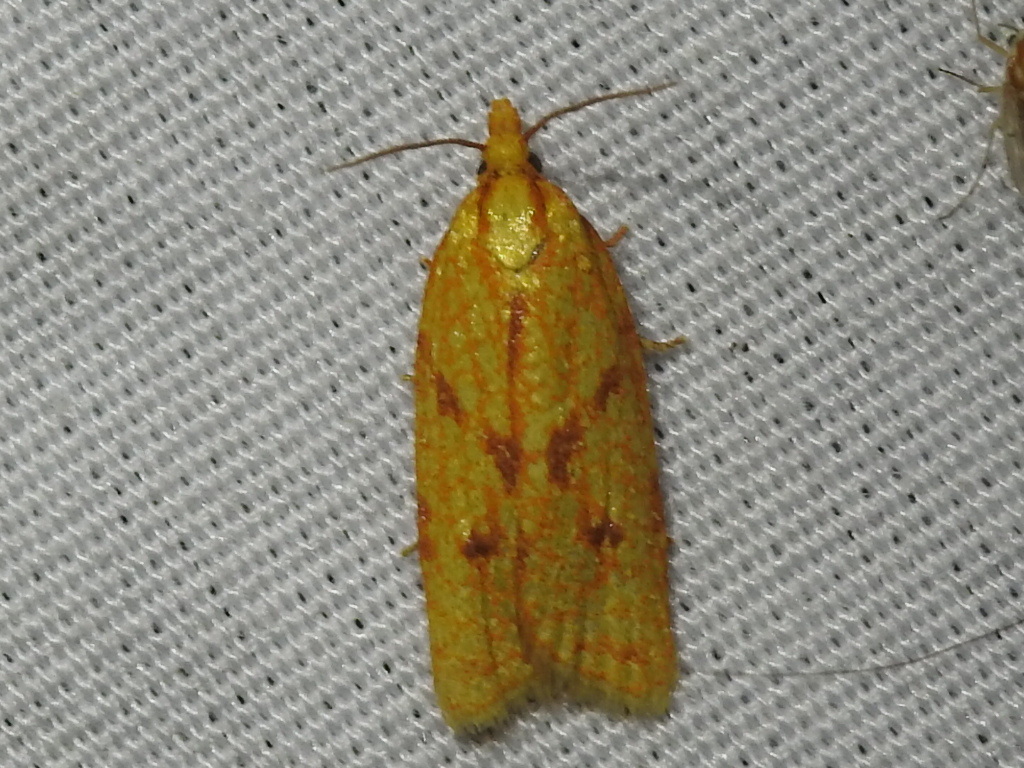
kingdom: Animalia
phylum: Arthropoda
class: Insecta
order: Lepidoptera
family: Tortricidae
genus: Sparganothis
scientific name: Sparganothis sulfureana
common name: Sparganothis fruitworm moth
